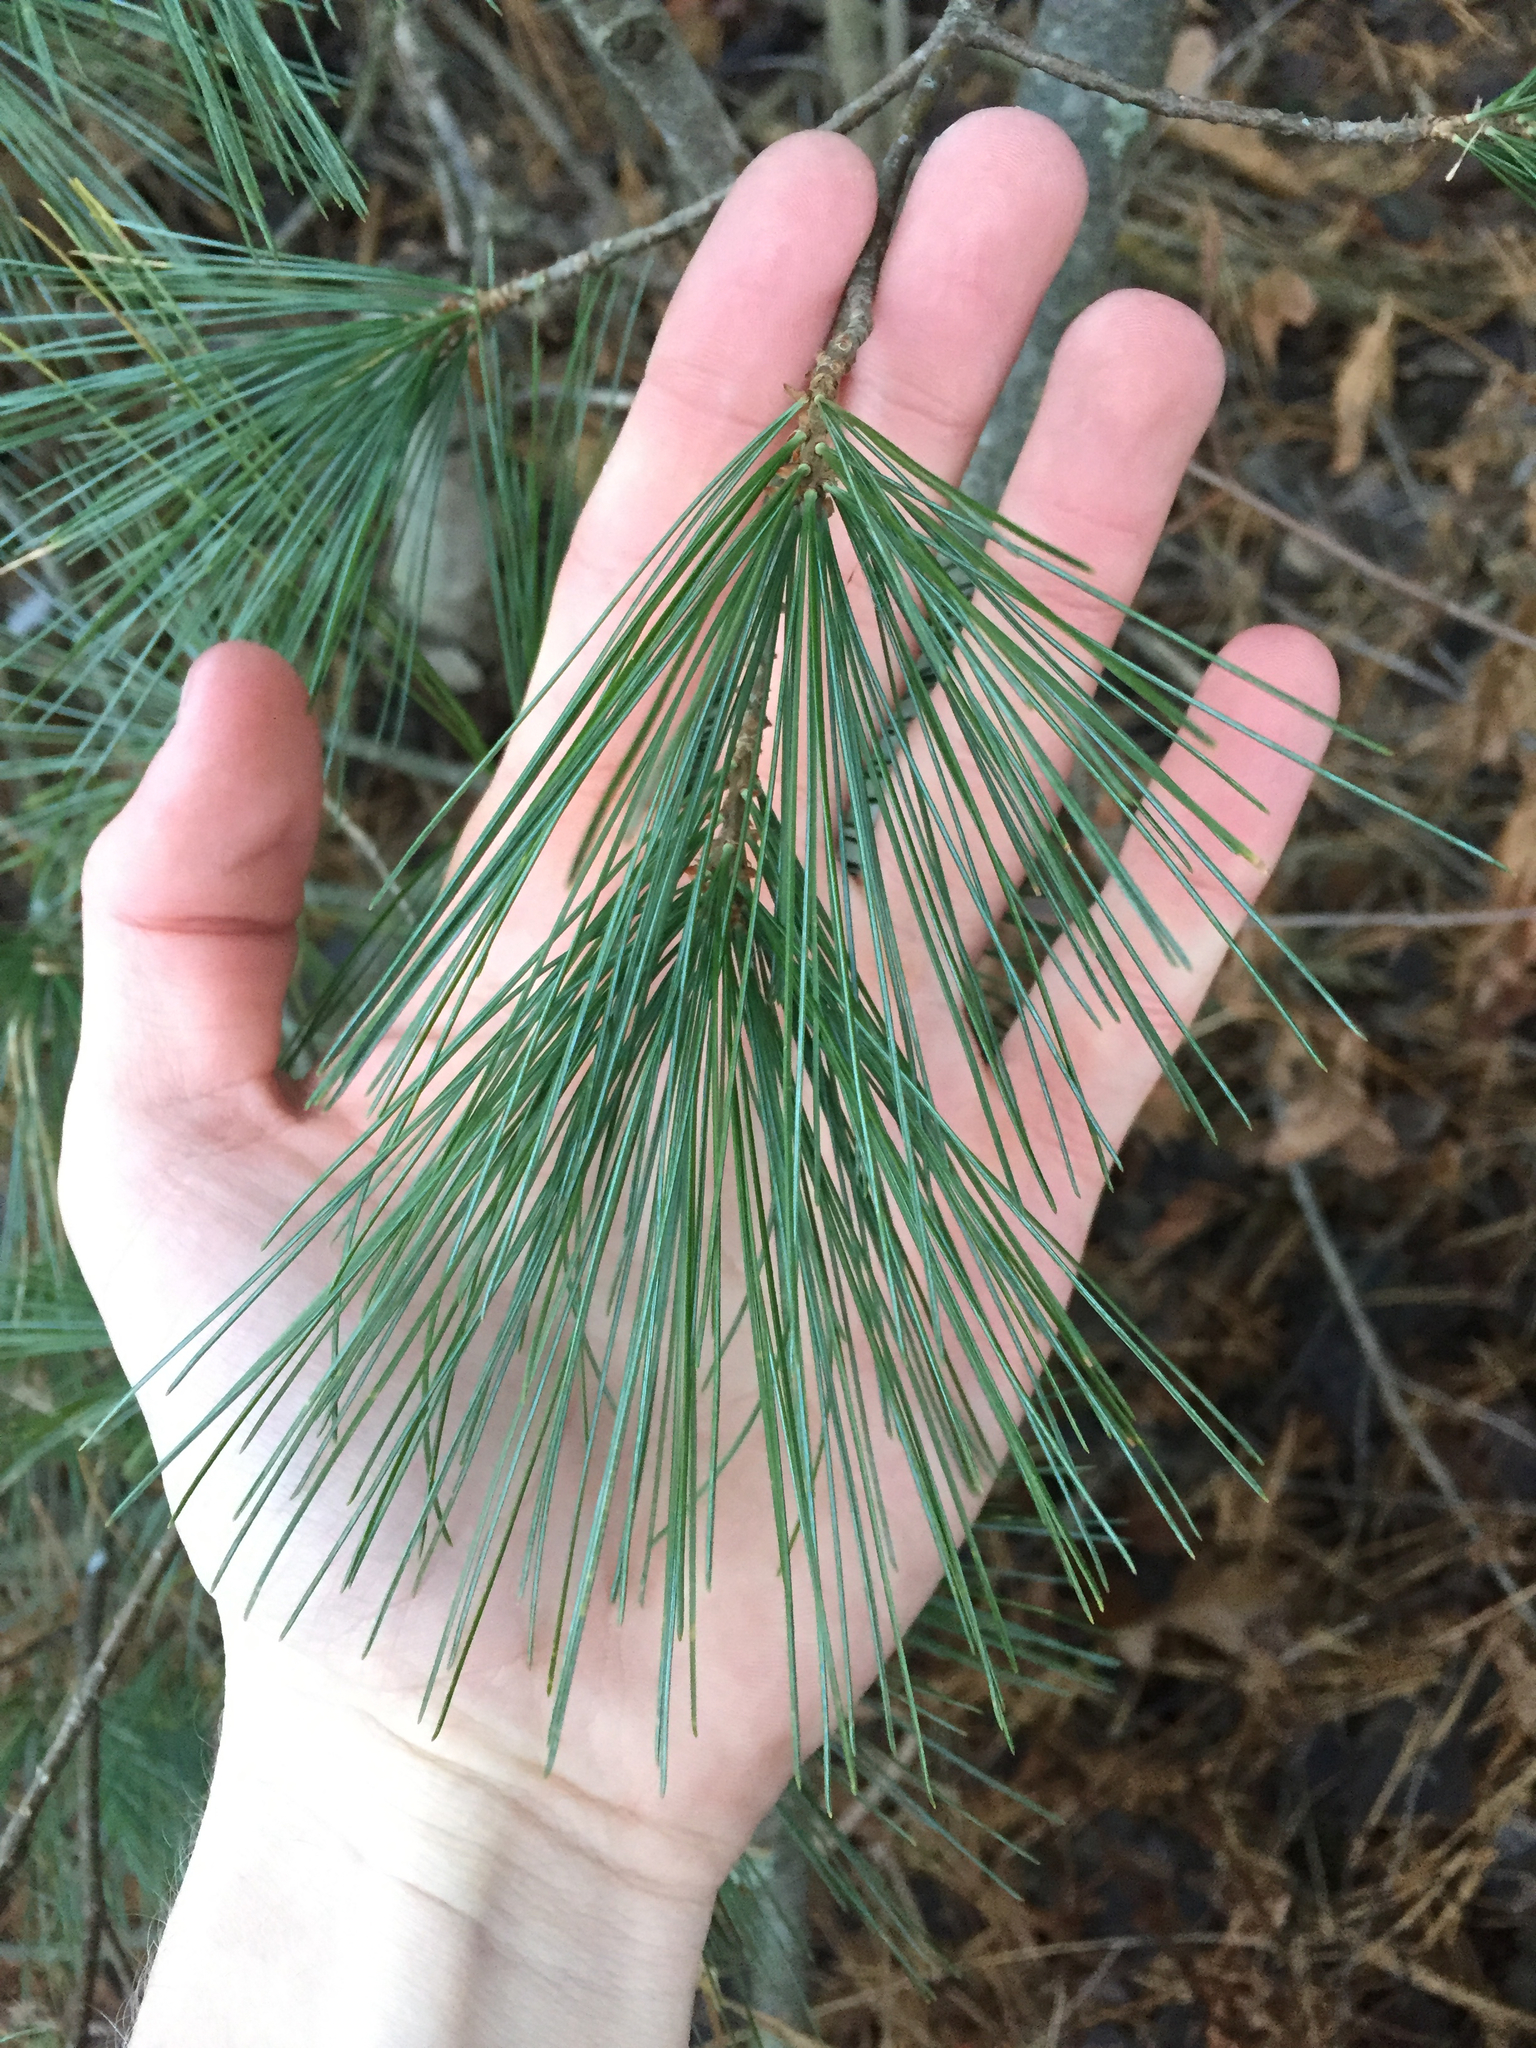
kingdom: Plantae
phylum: Tracheophyta
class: Pinopsida
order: Pinales
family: Pinaceae
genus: Pinus
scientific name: Pinus strobus
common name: Weymouth pine
